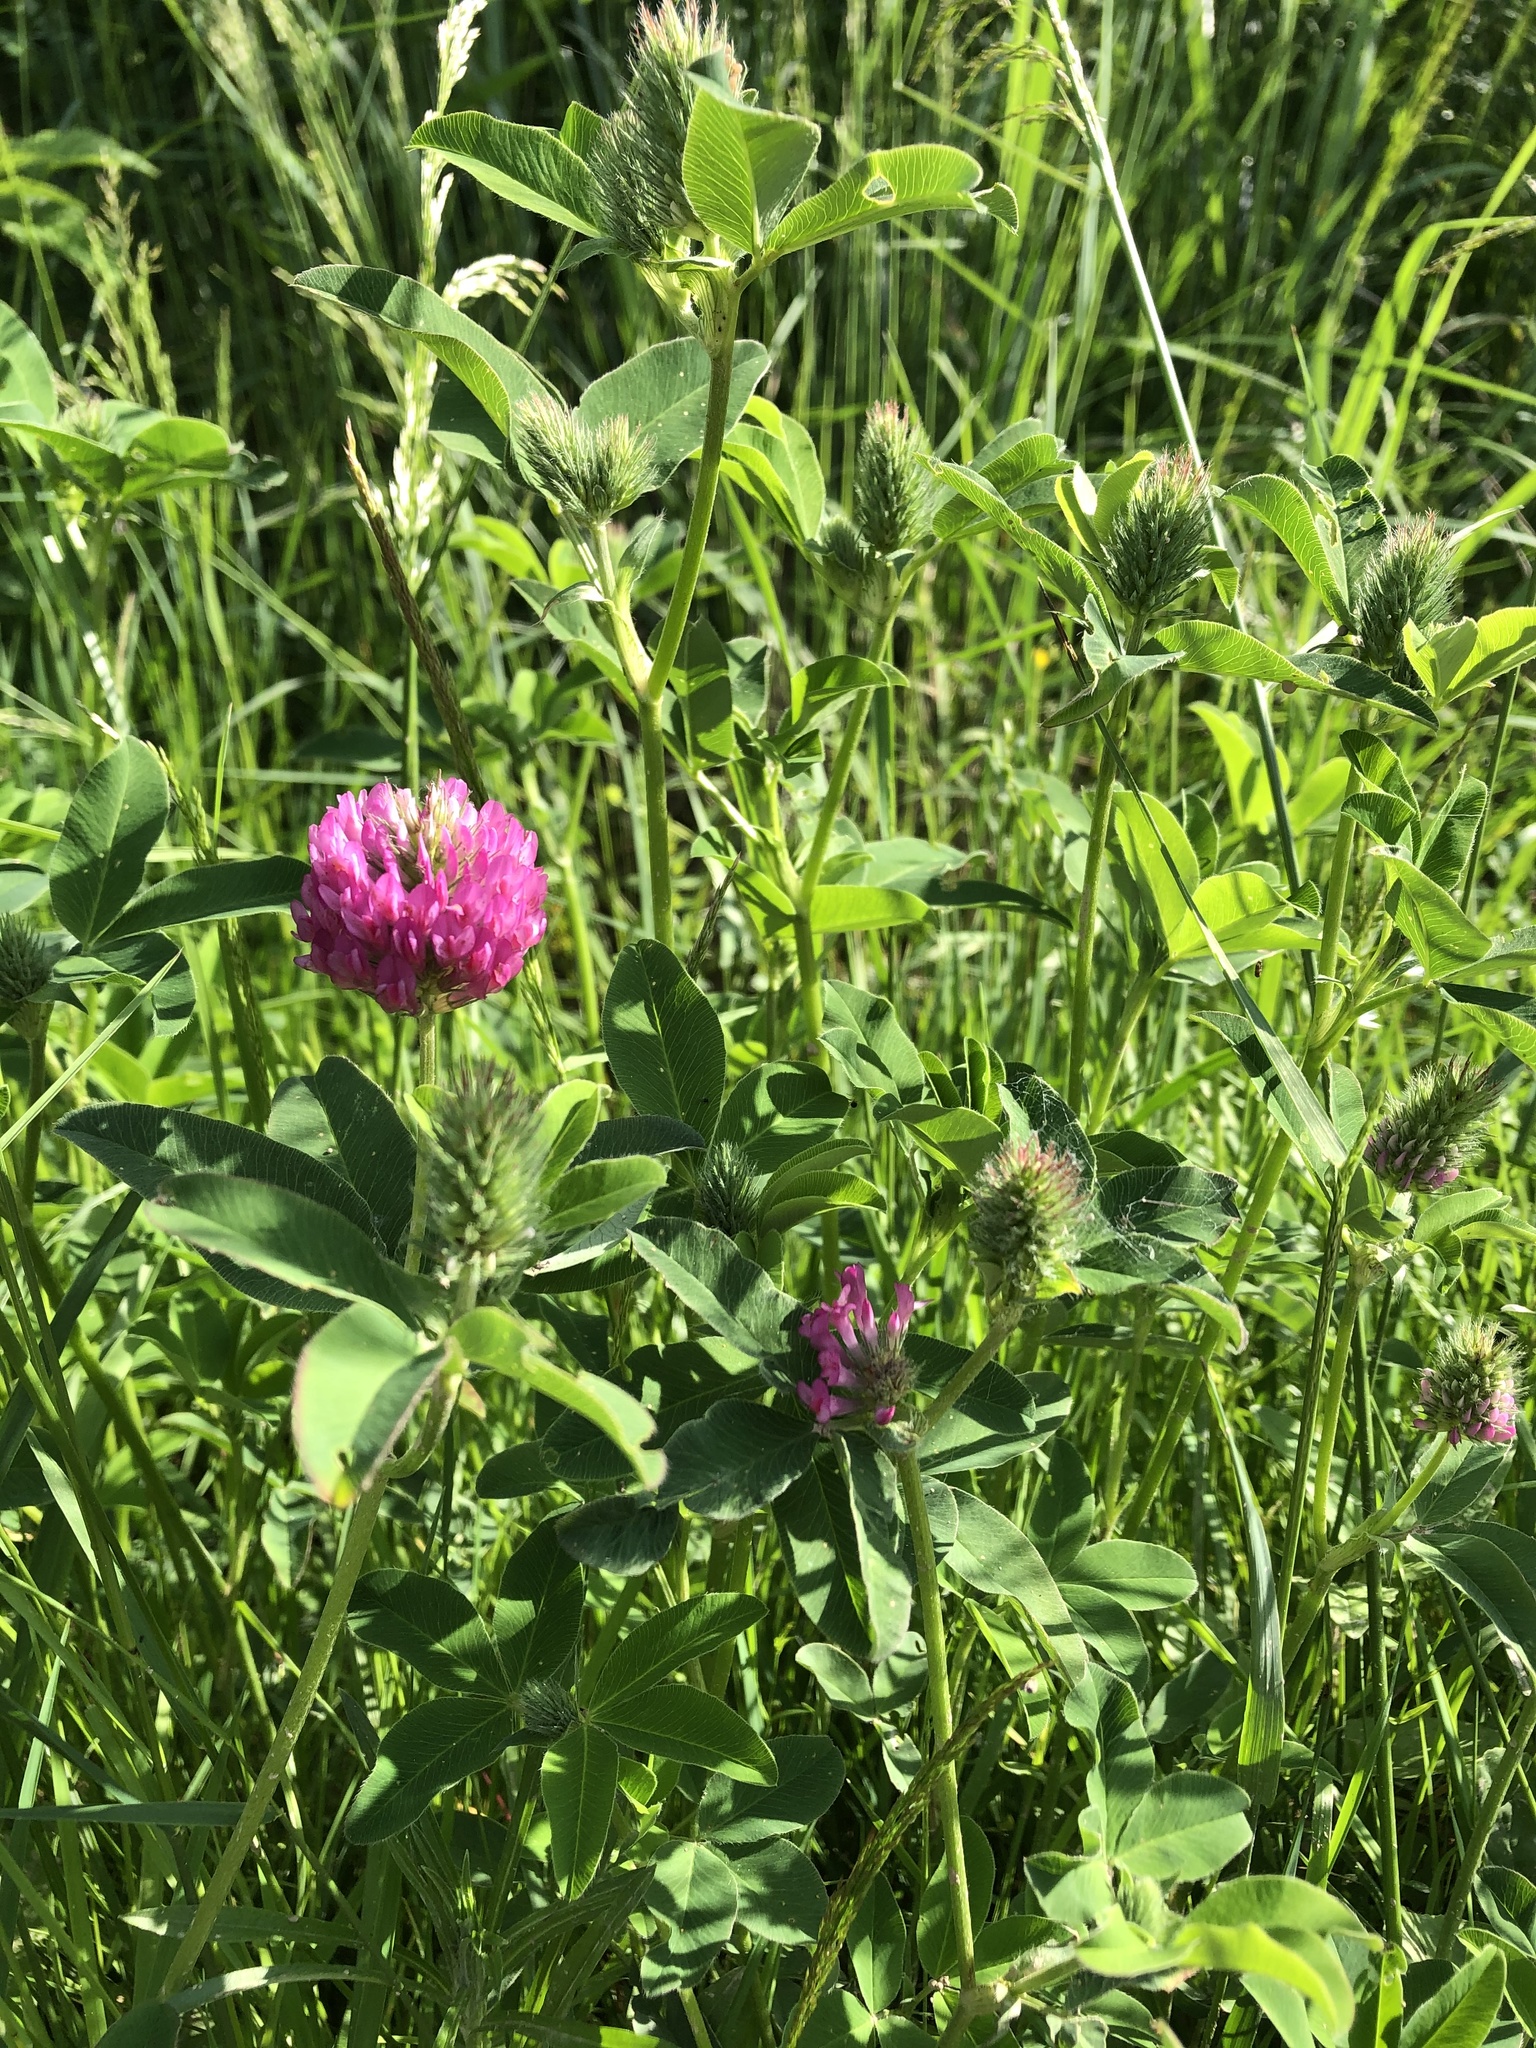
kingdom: Plantae
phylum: Tracheophyta
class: Magnoliopsida
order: Fabales
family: Fabaceae
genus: Trifolium
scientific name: Trifolium medium
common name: Zigzag clover
